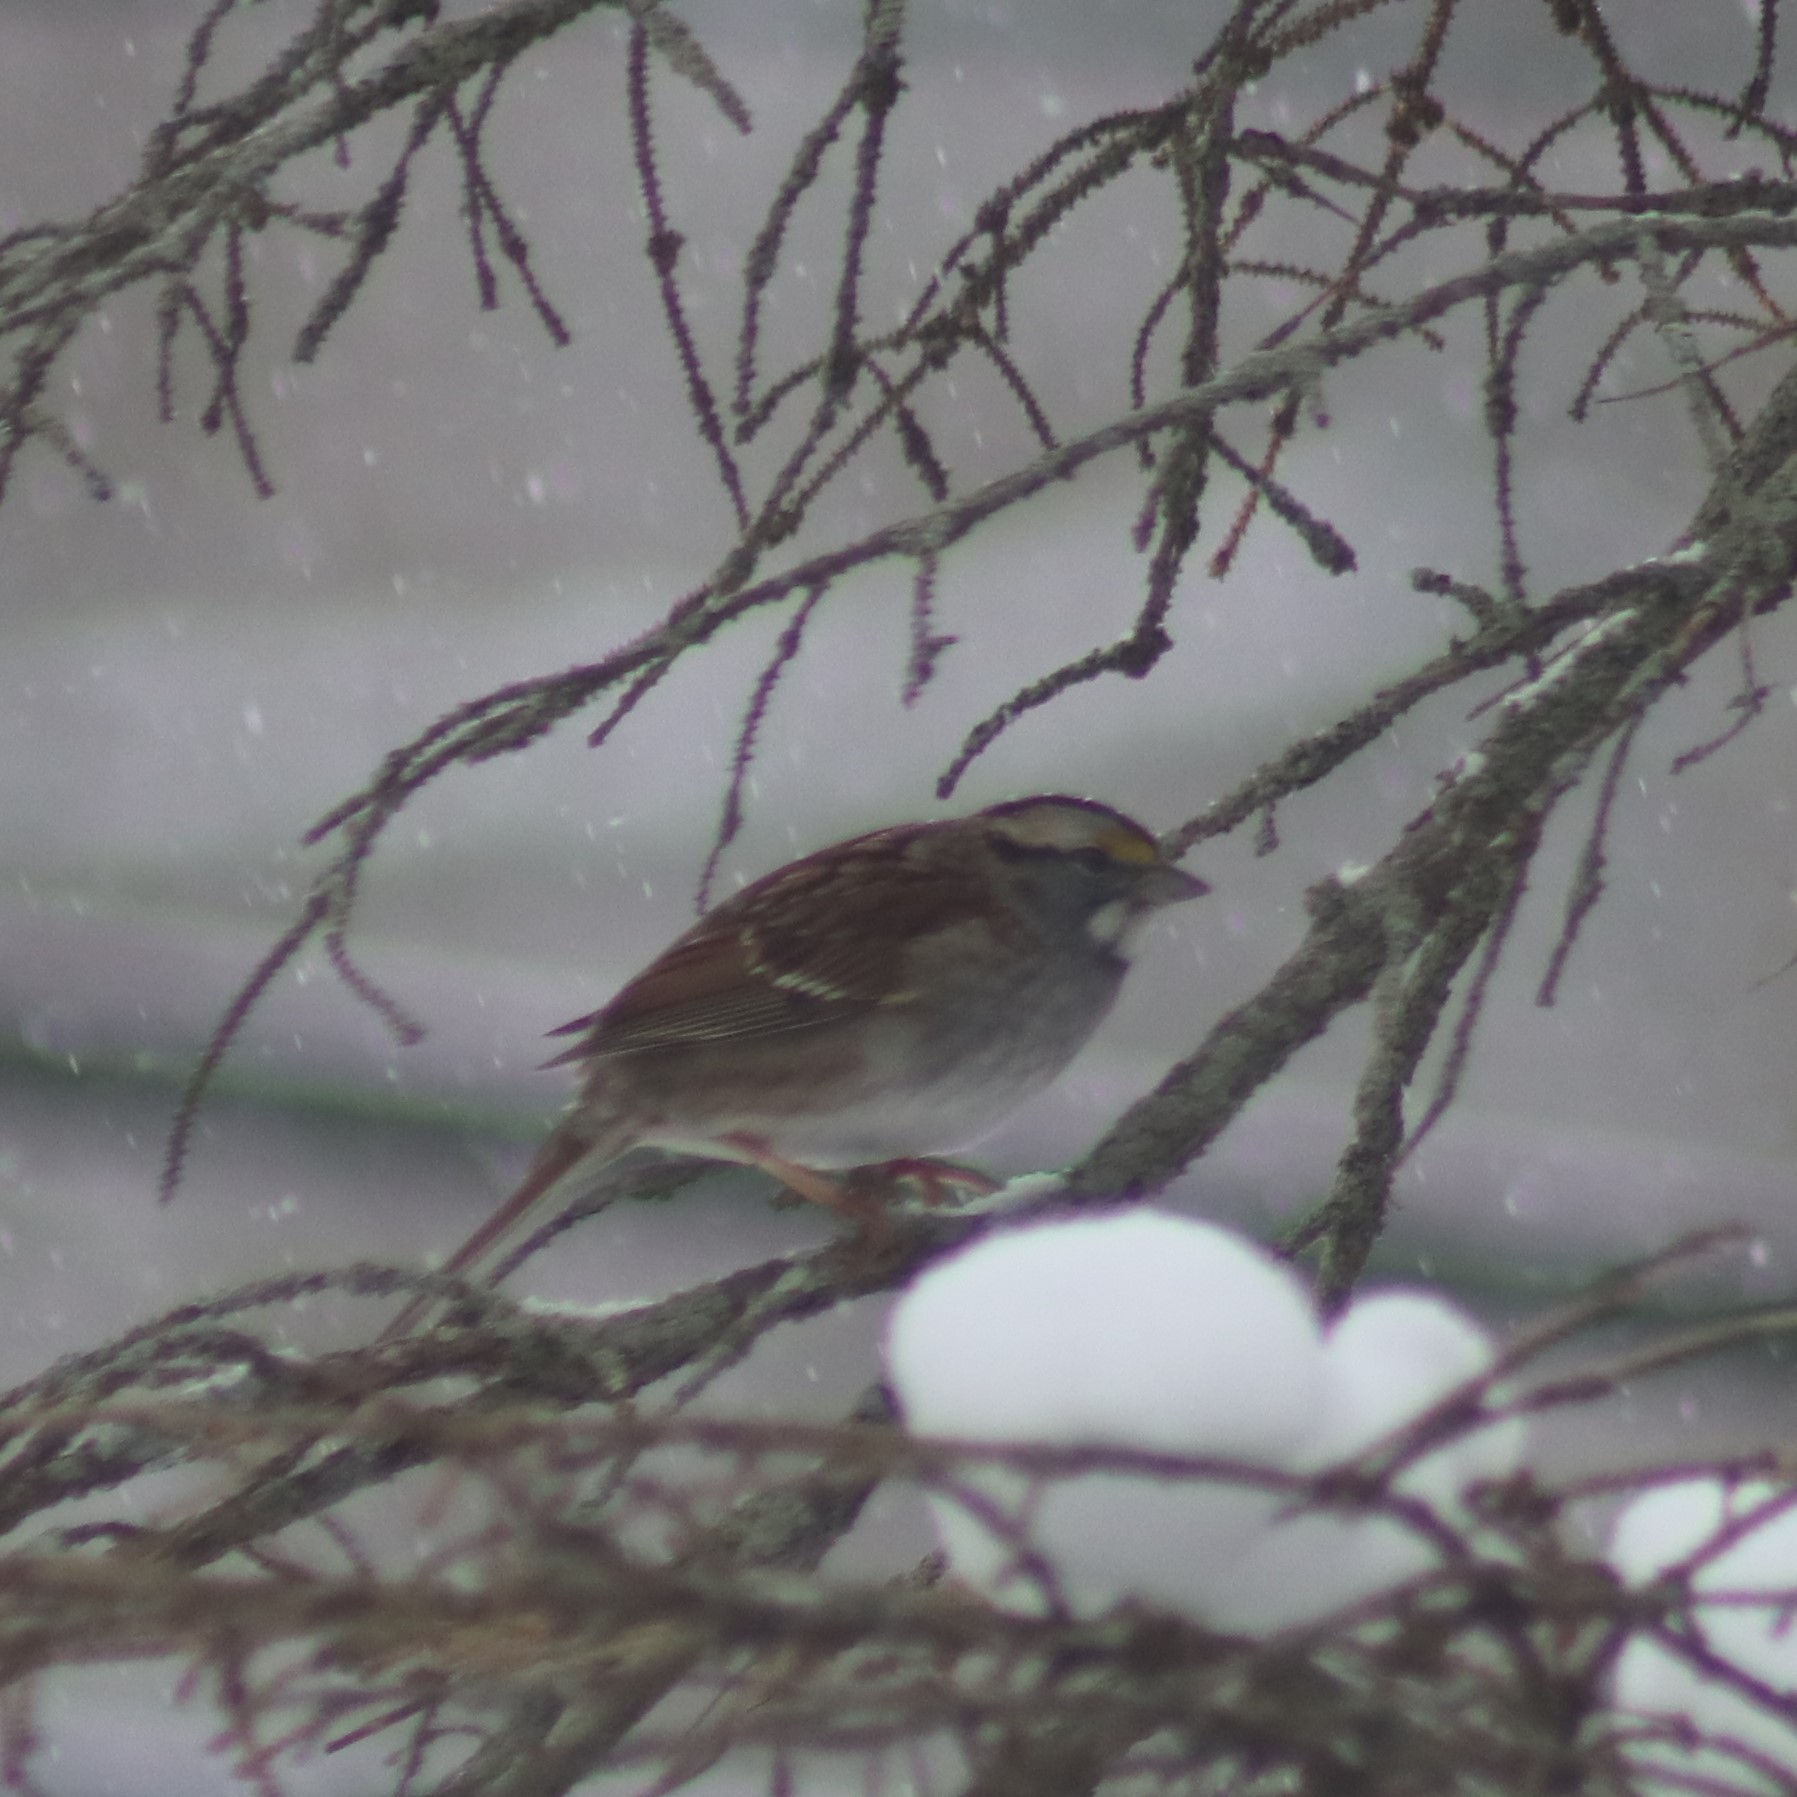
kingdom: Animalia
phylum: Chordata
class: Aves
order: Passeriformes
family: Passerellidae
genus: Zonotrichia
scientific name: Zonotrichia albicollis
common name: White-throated sparrow
